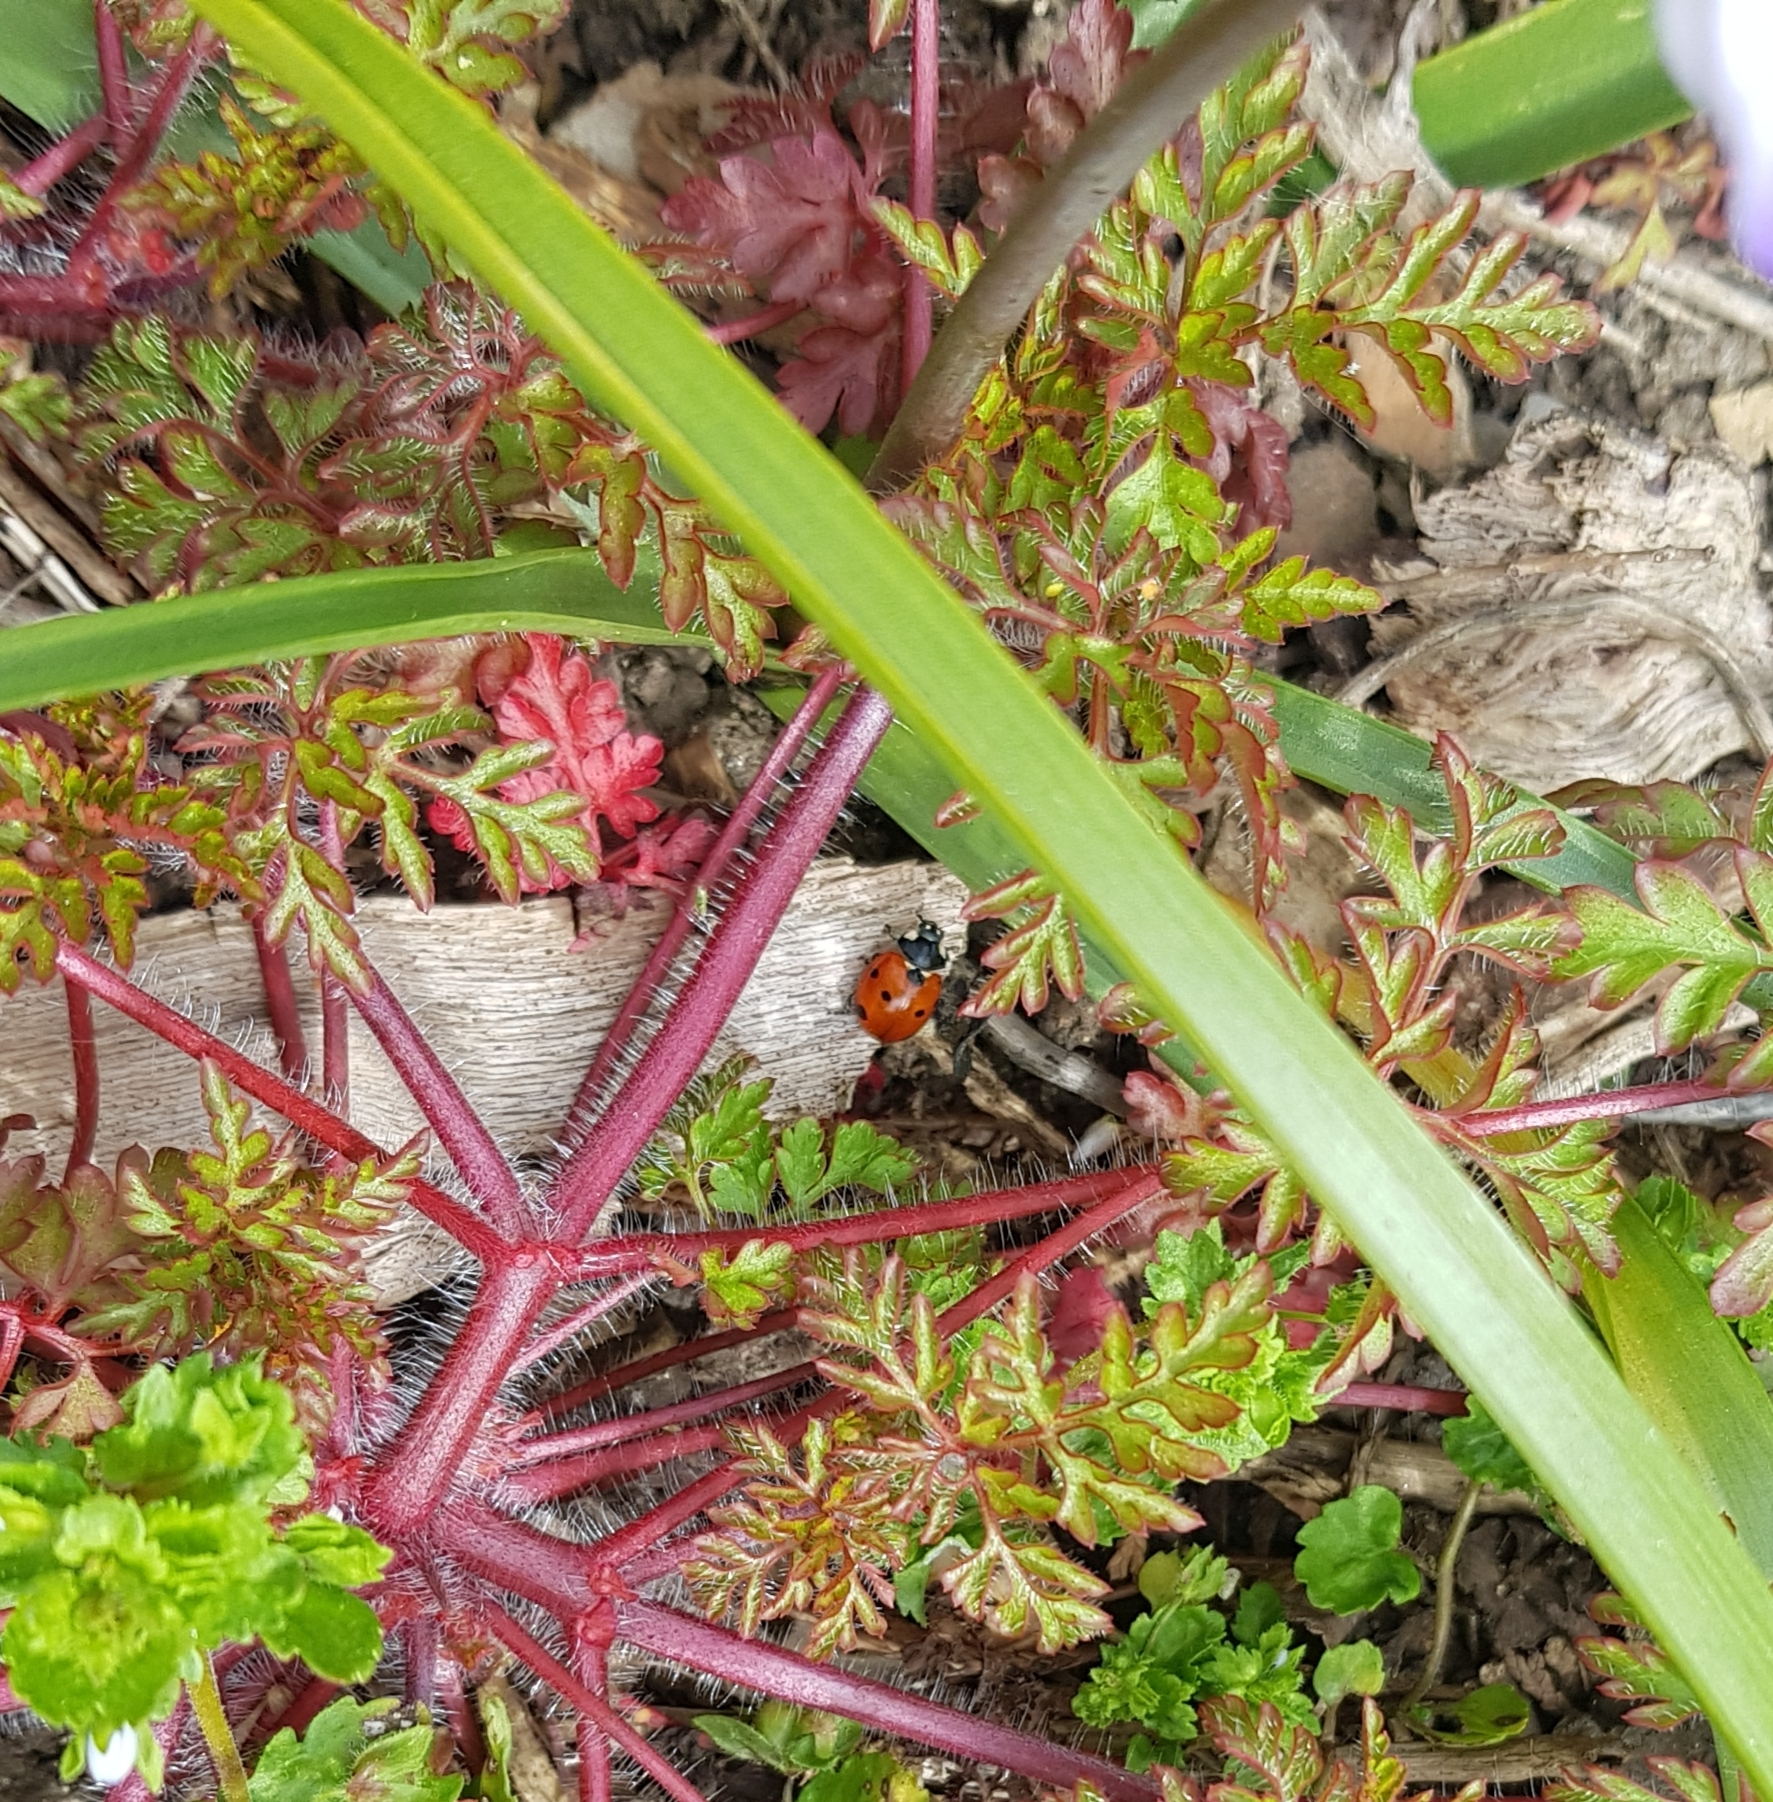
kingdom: Animalia
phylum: Arthropoda
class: Insecta
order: Coleoptera
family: Coccinellidae
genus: Coccinella
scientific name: Coccinella septempunctata
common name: Sevenspotted lady beetle
